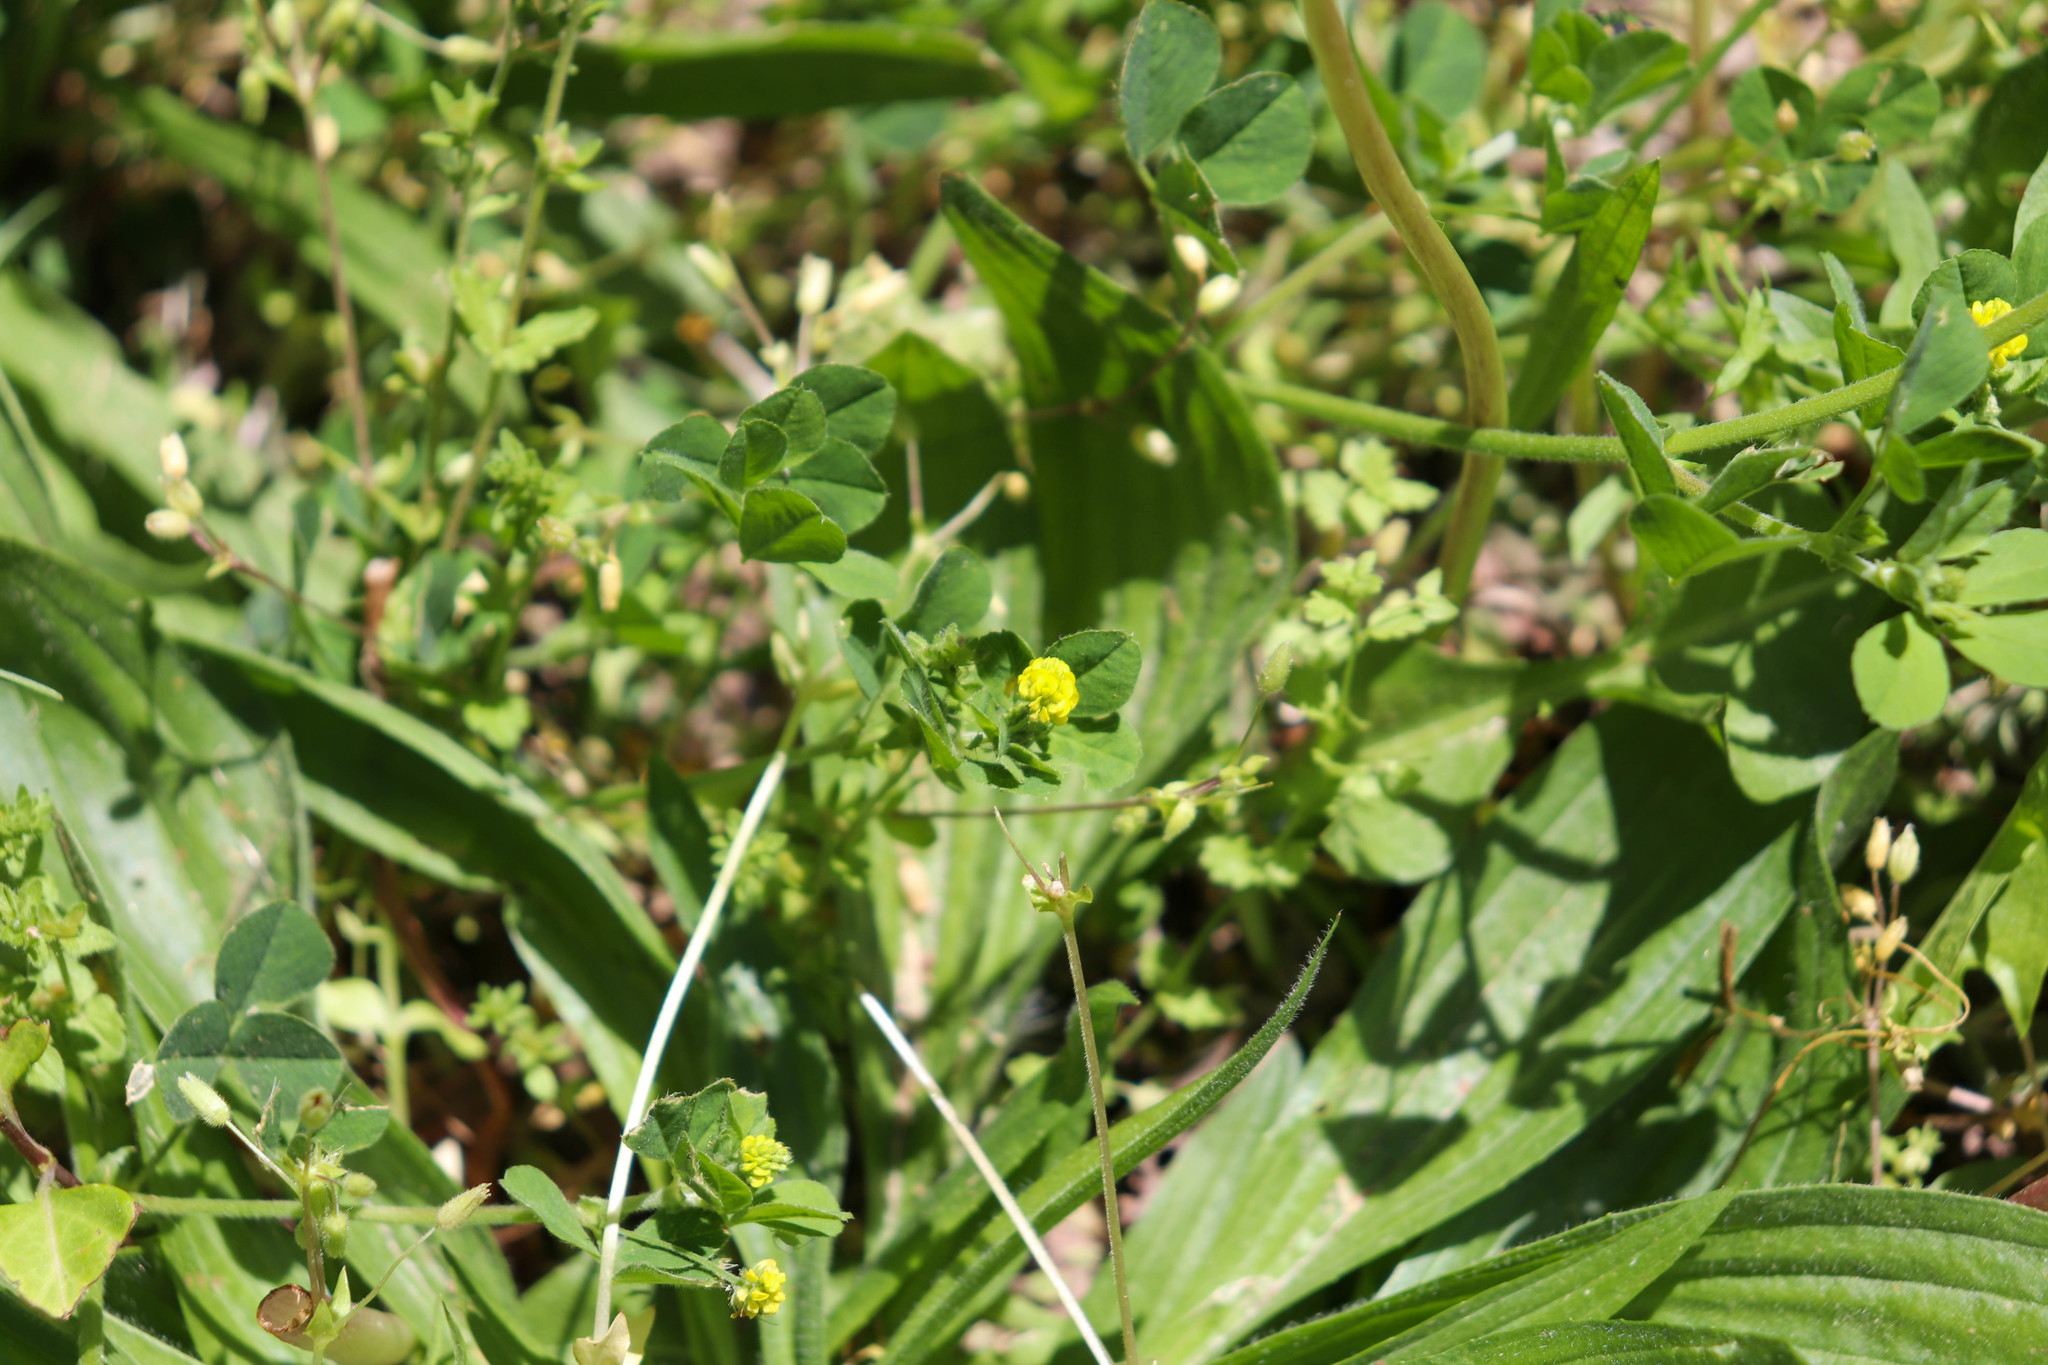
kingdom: Plantae
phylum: Tracheophyta
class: Magnoliopsida
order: Fabales
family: Fabaceae
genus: Medicago
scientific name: Medicago lupulina
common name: Black medick
